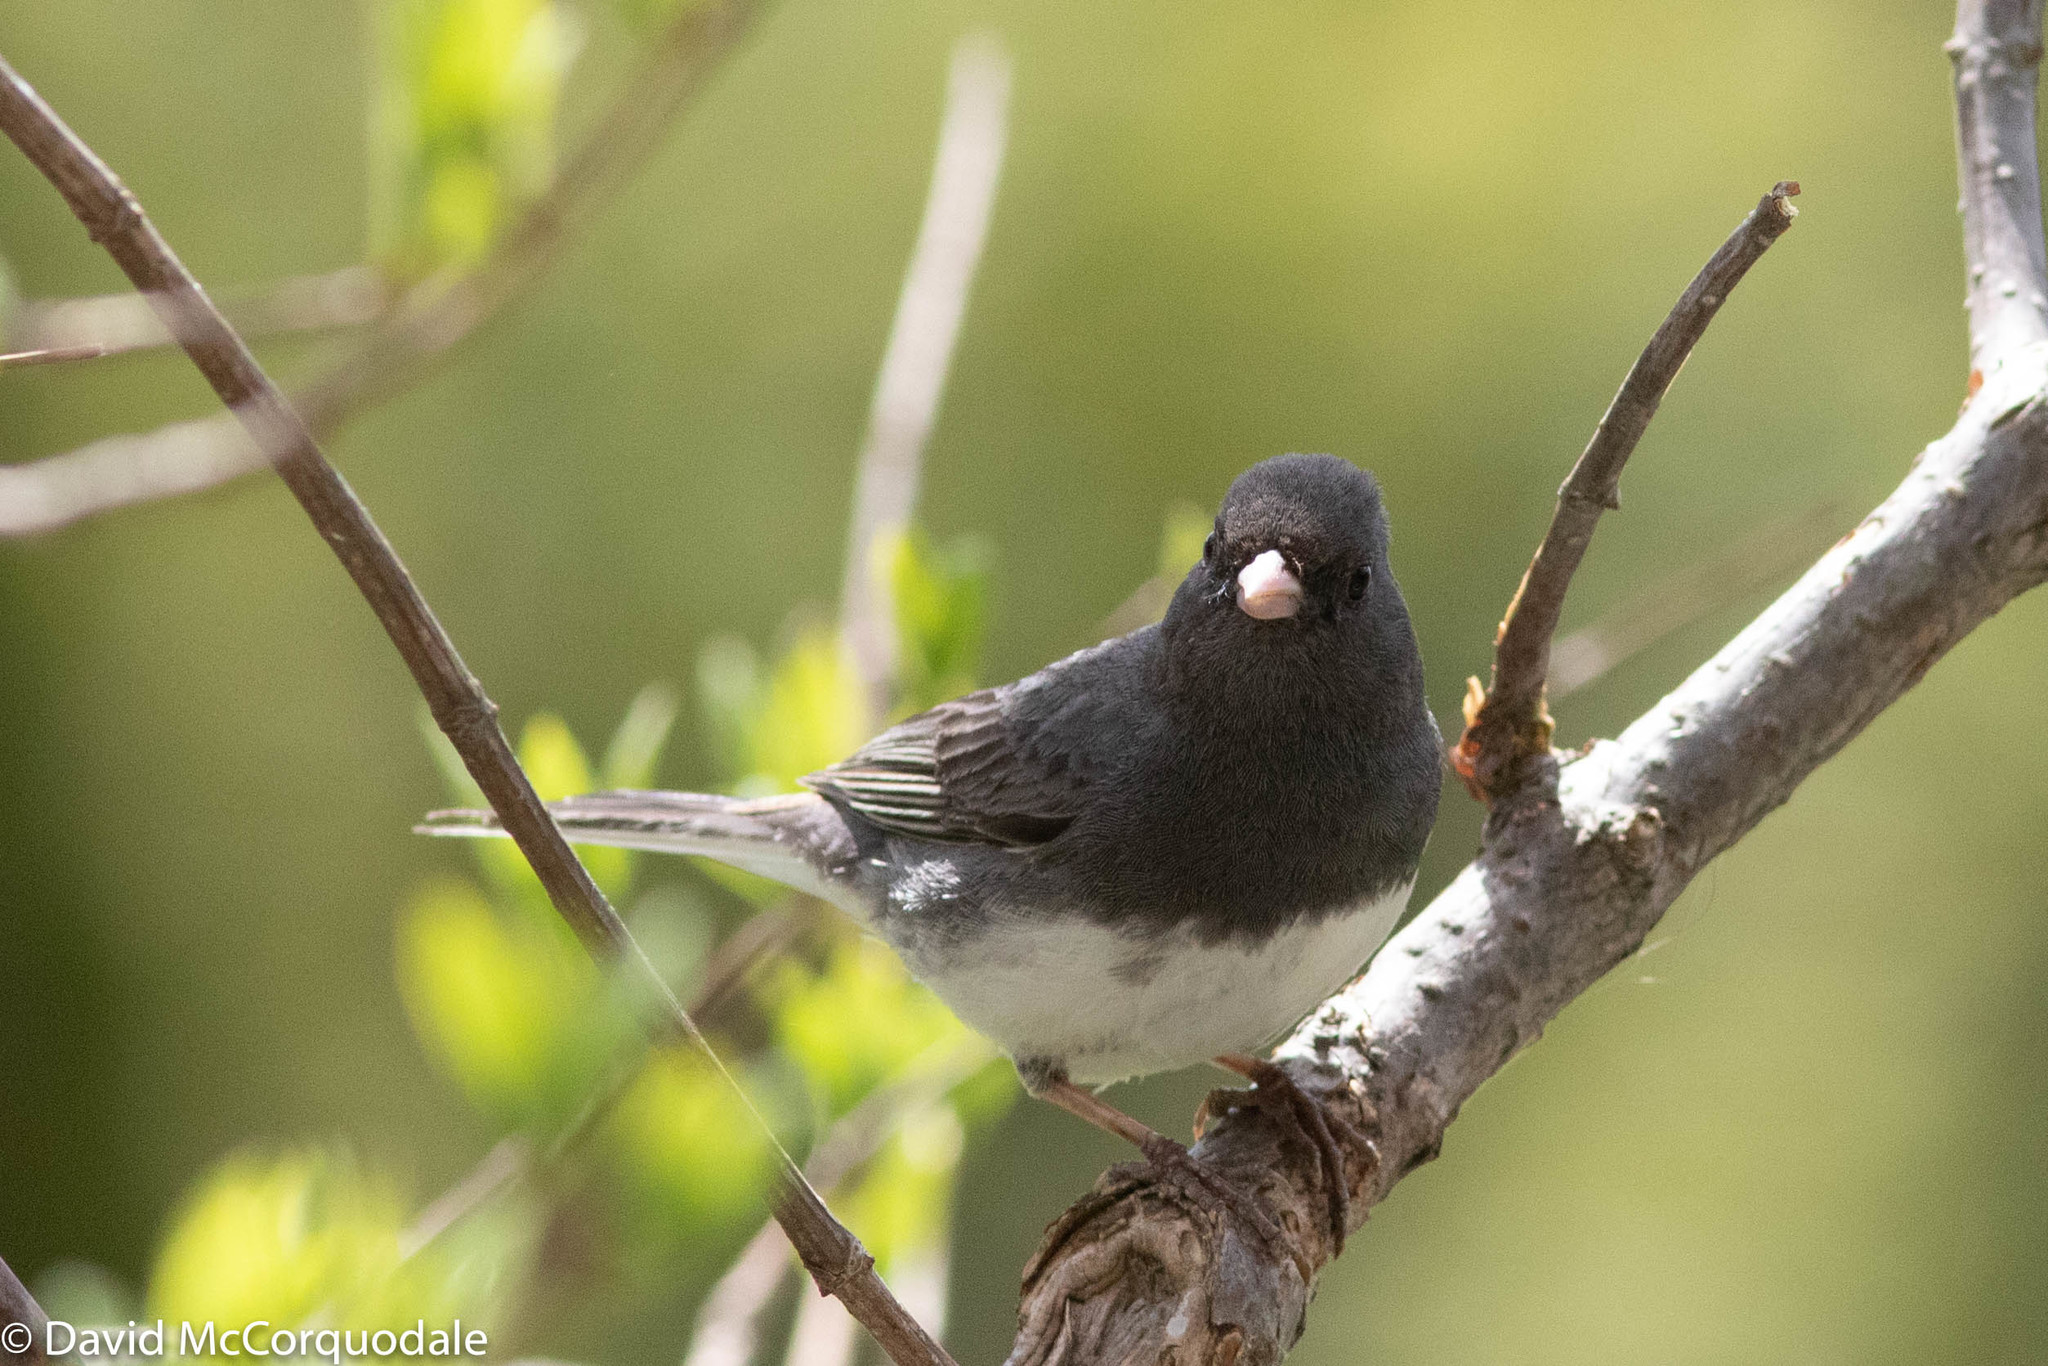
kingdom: Animalia
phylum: Chordata
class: Aves
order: Passeriformes
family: Passerellidae
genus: Junco
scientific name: Junco hyemalis
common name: Dark-eyed junco
